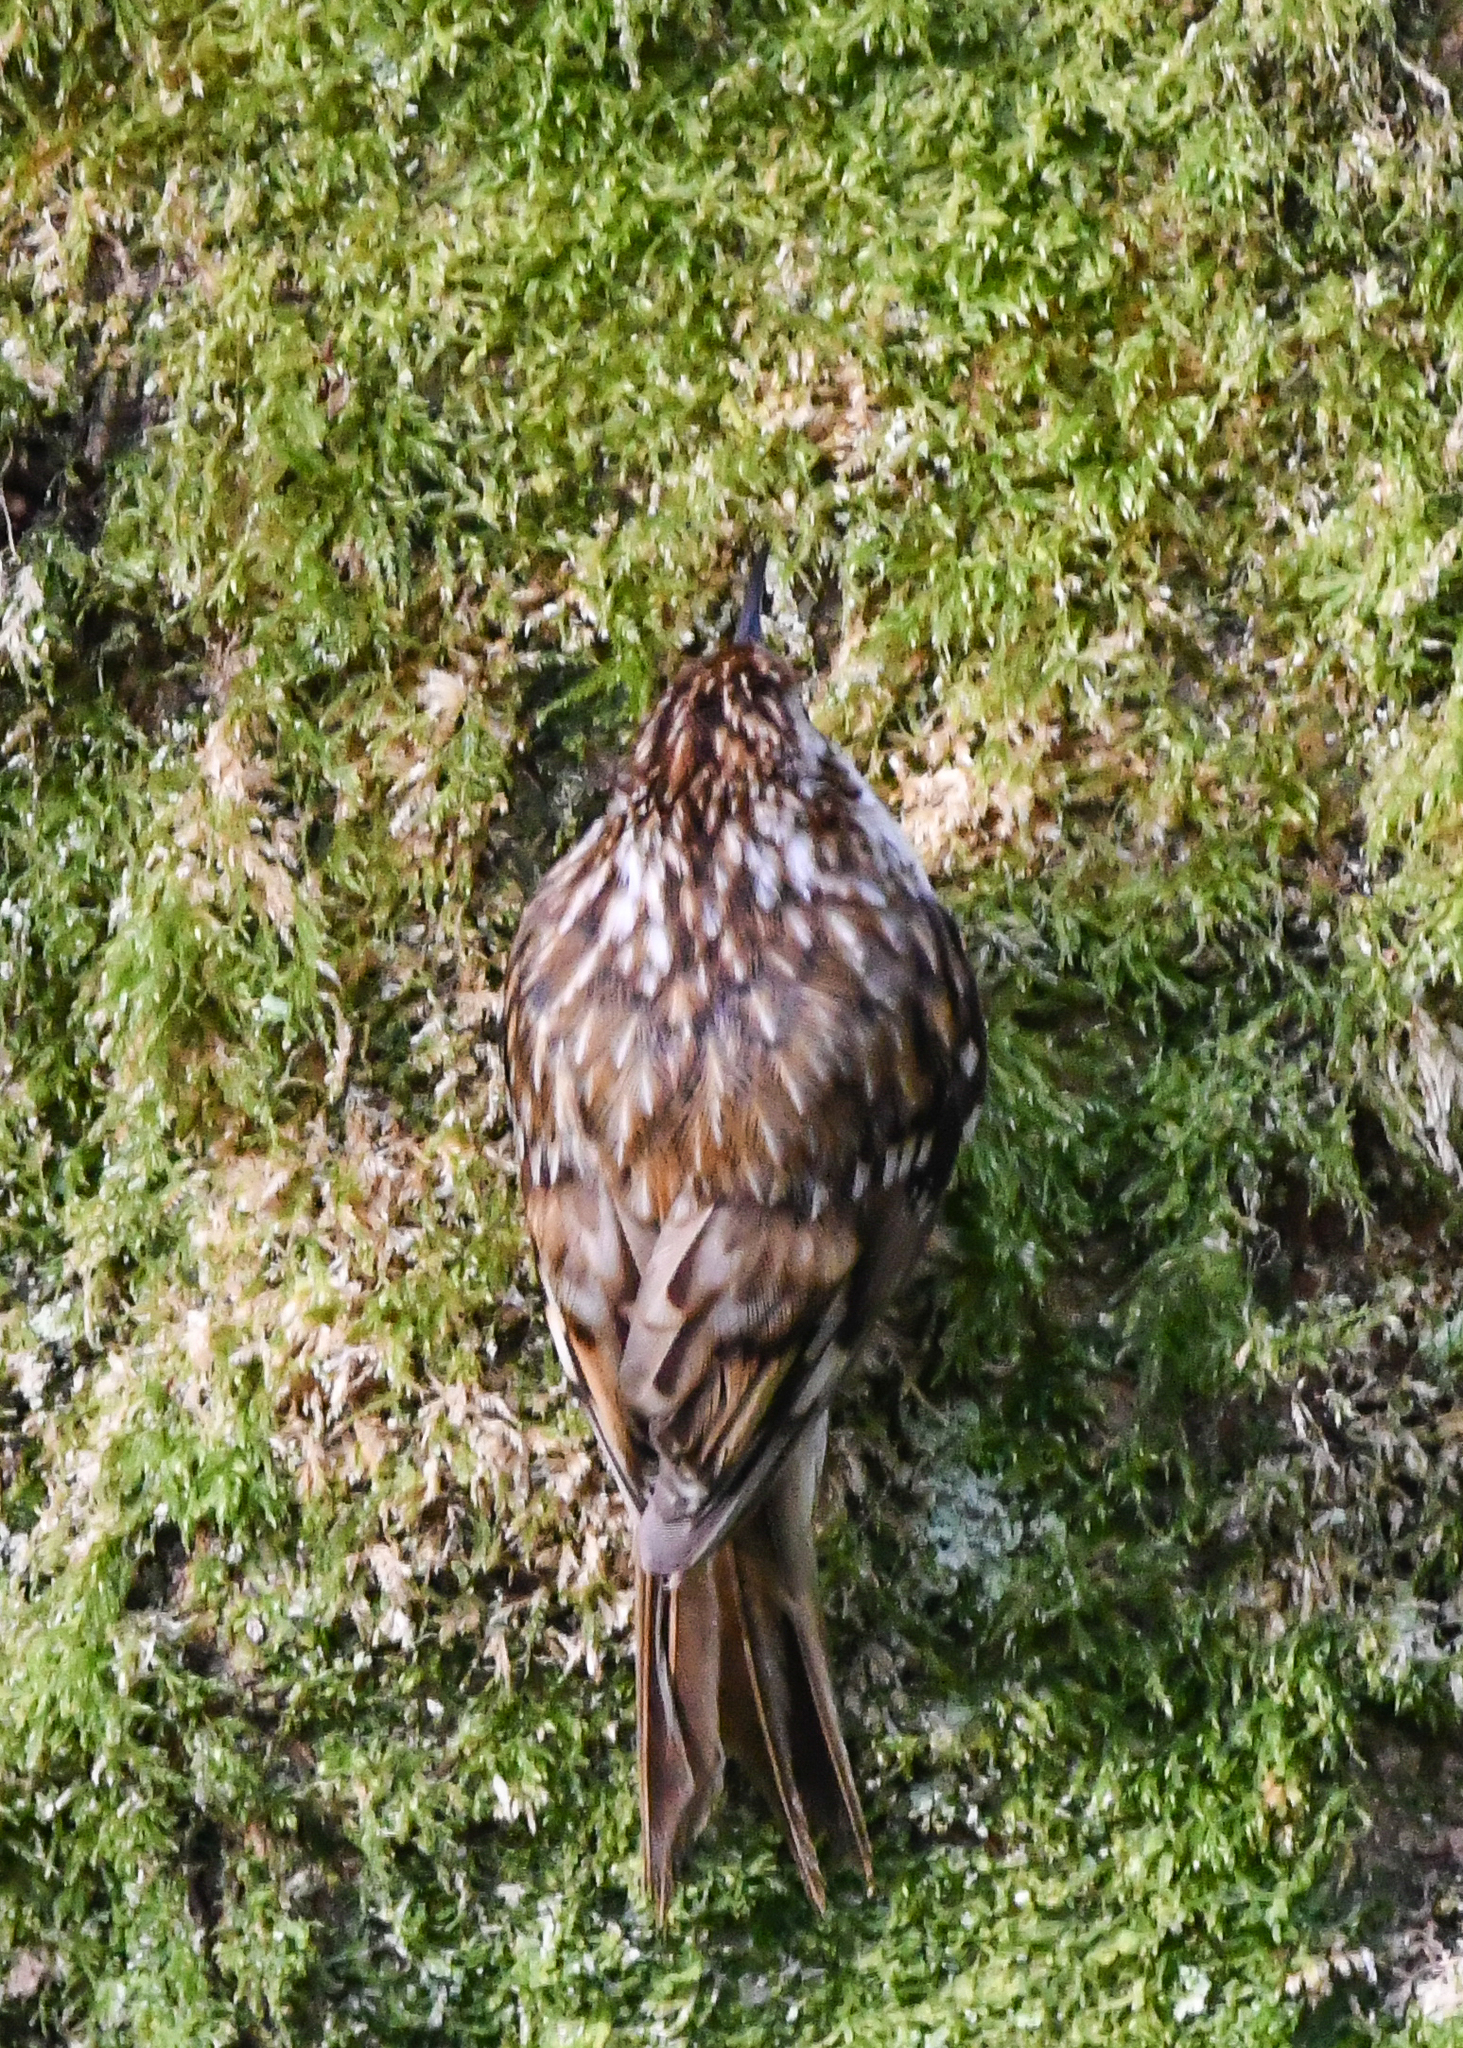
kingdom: Animalia
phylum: Chordata
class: Aves
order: Passeriformes
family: Certhiidae
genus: Certhia
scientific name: Certhia familiaris
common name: Eurasian treecreeper
